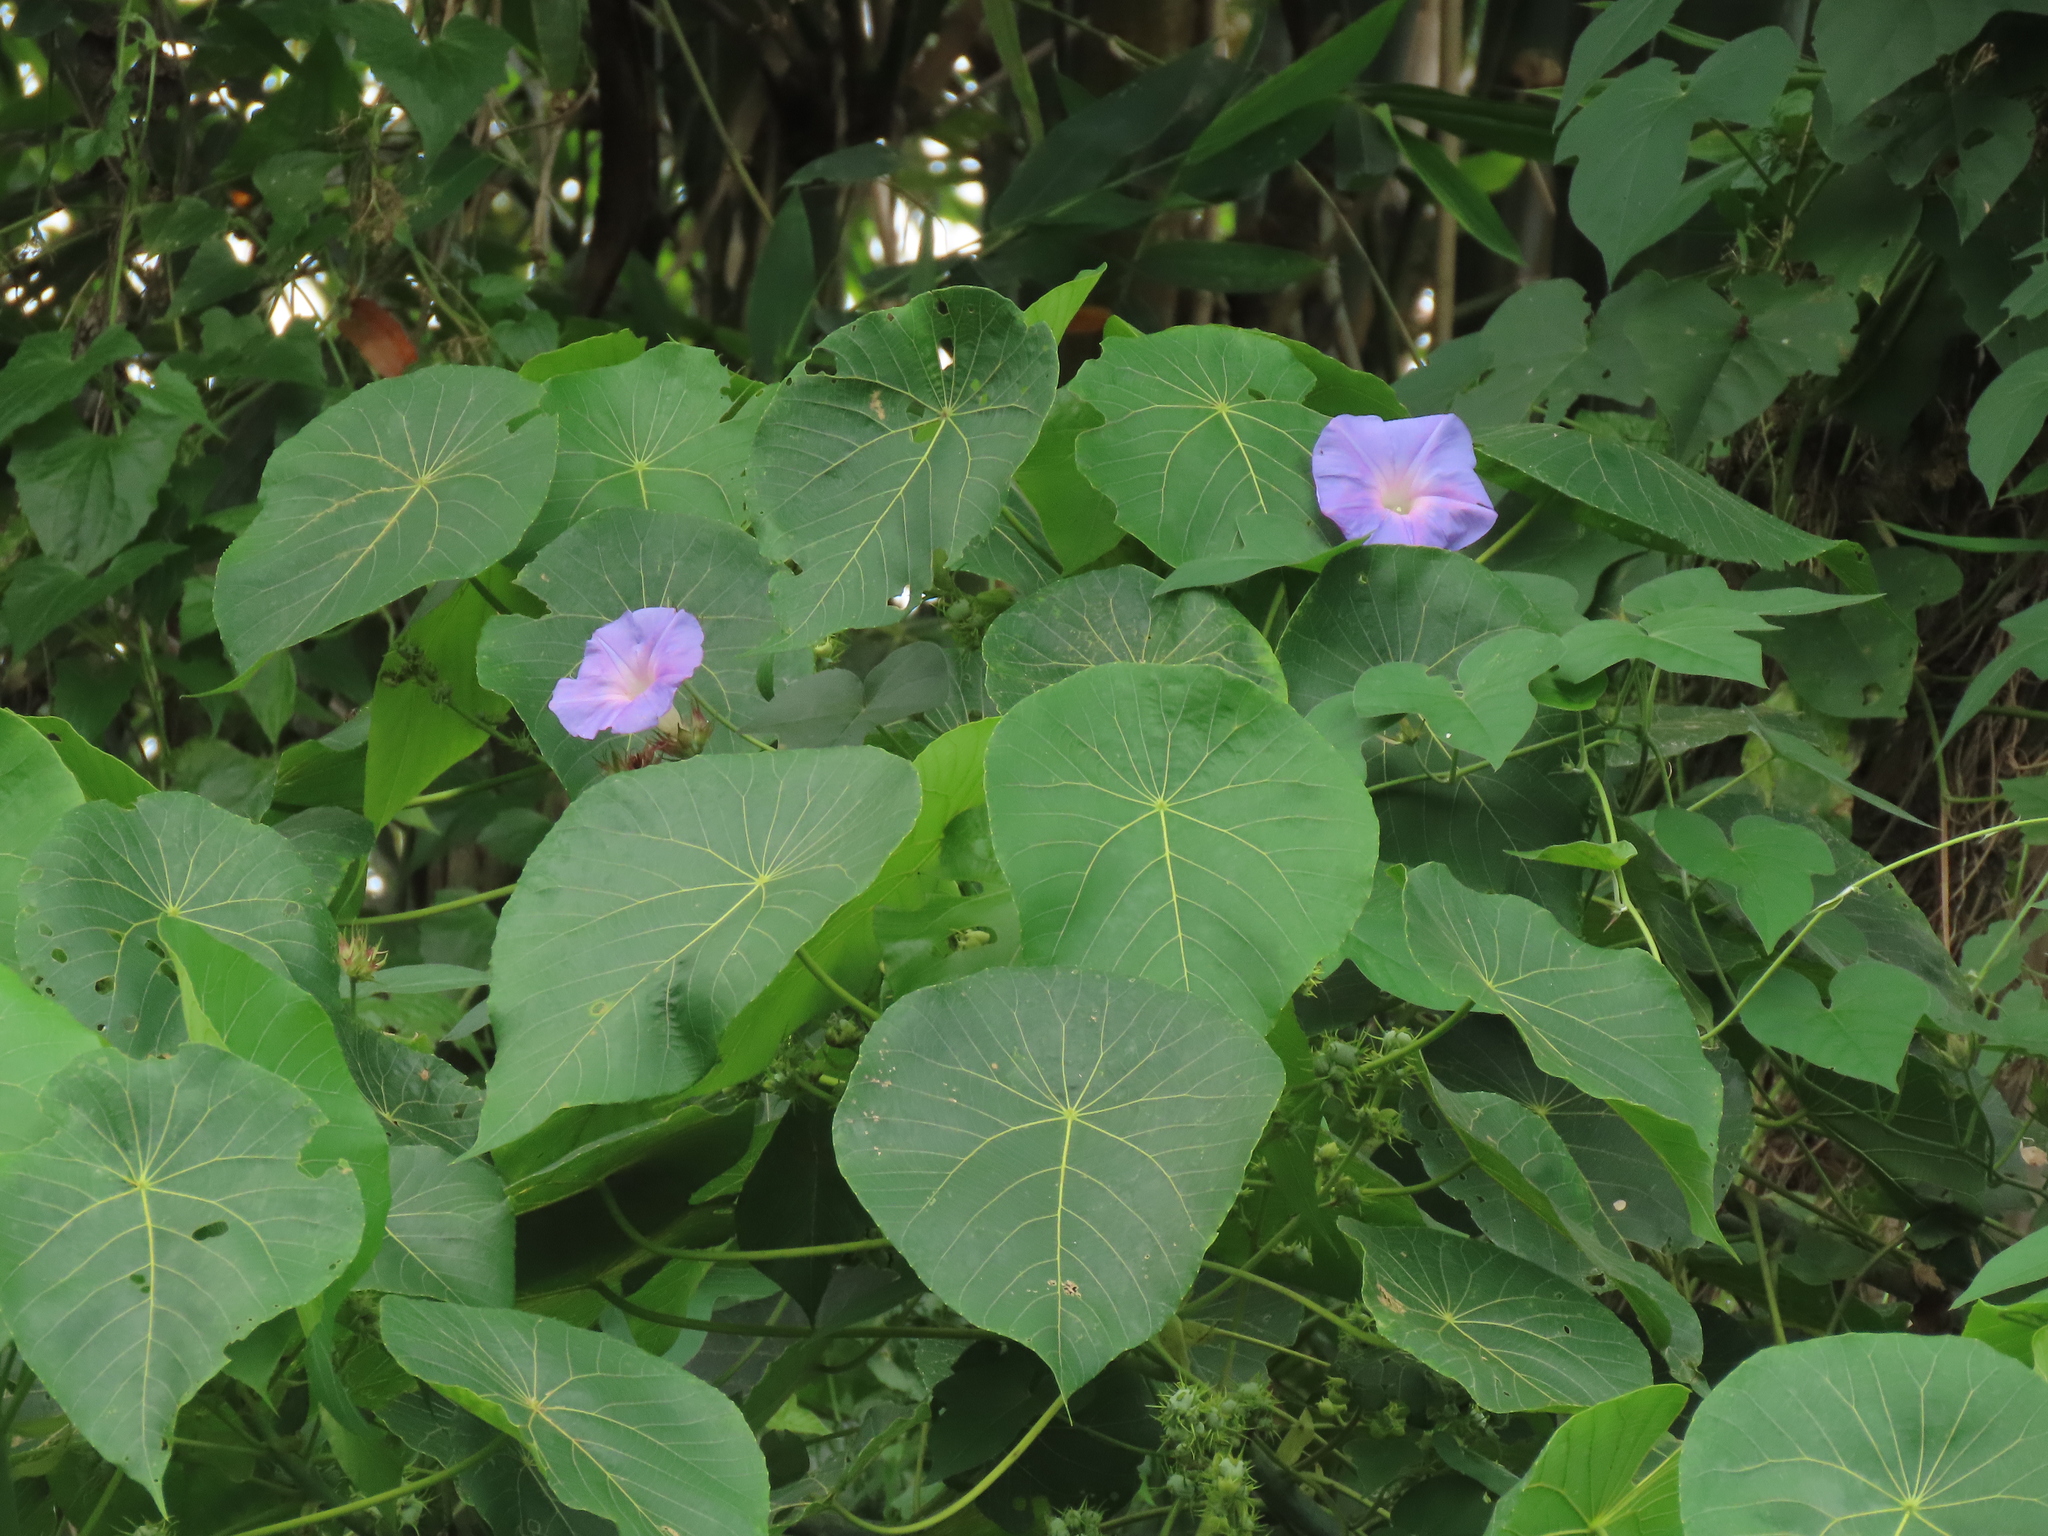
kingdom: Plantae
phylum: Tracheophyta
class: Magnoliopsida
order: Solanales
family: Convolvulaceae
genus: Ipomoea
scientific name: Ipomoea indica
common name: Blue dawnflower
